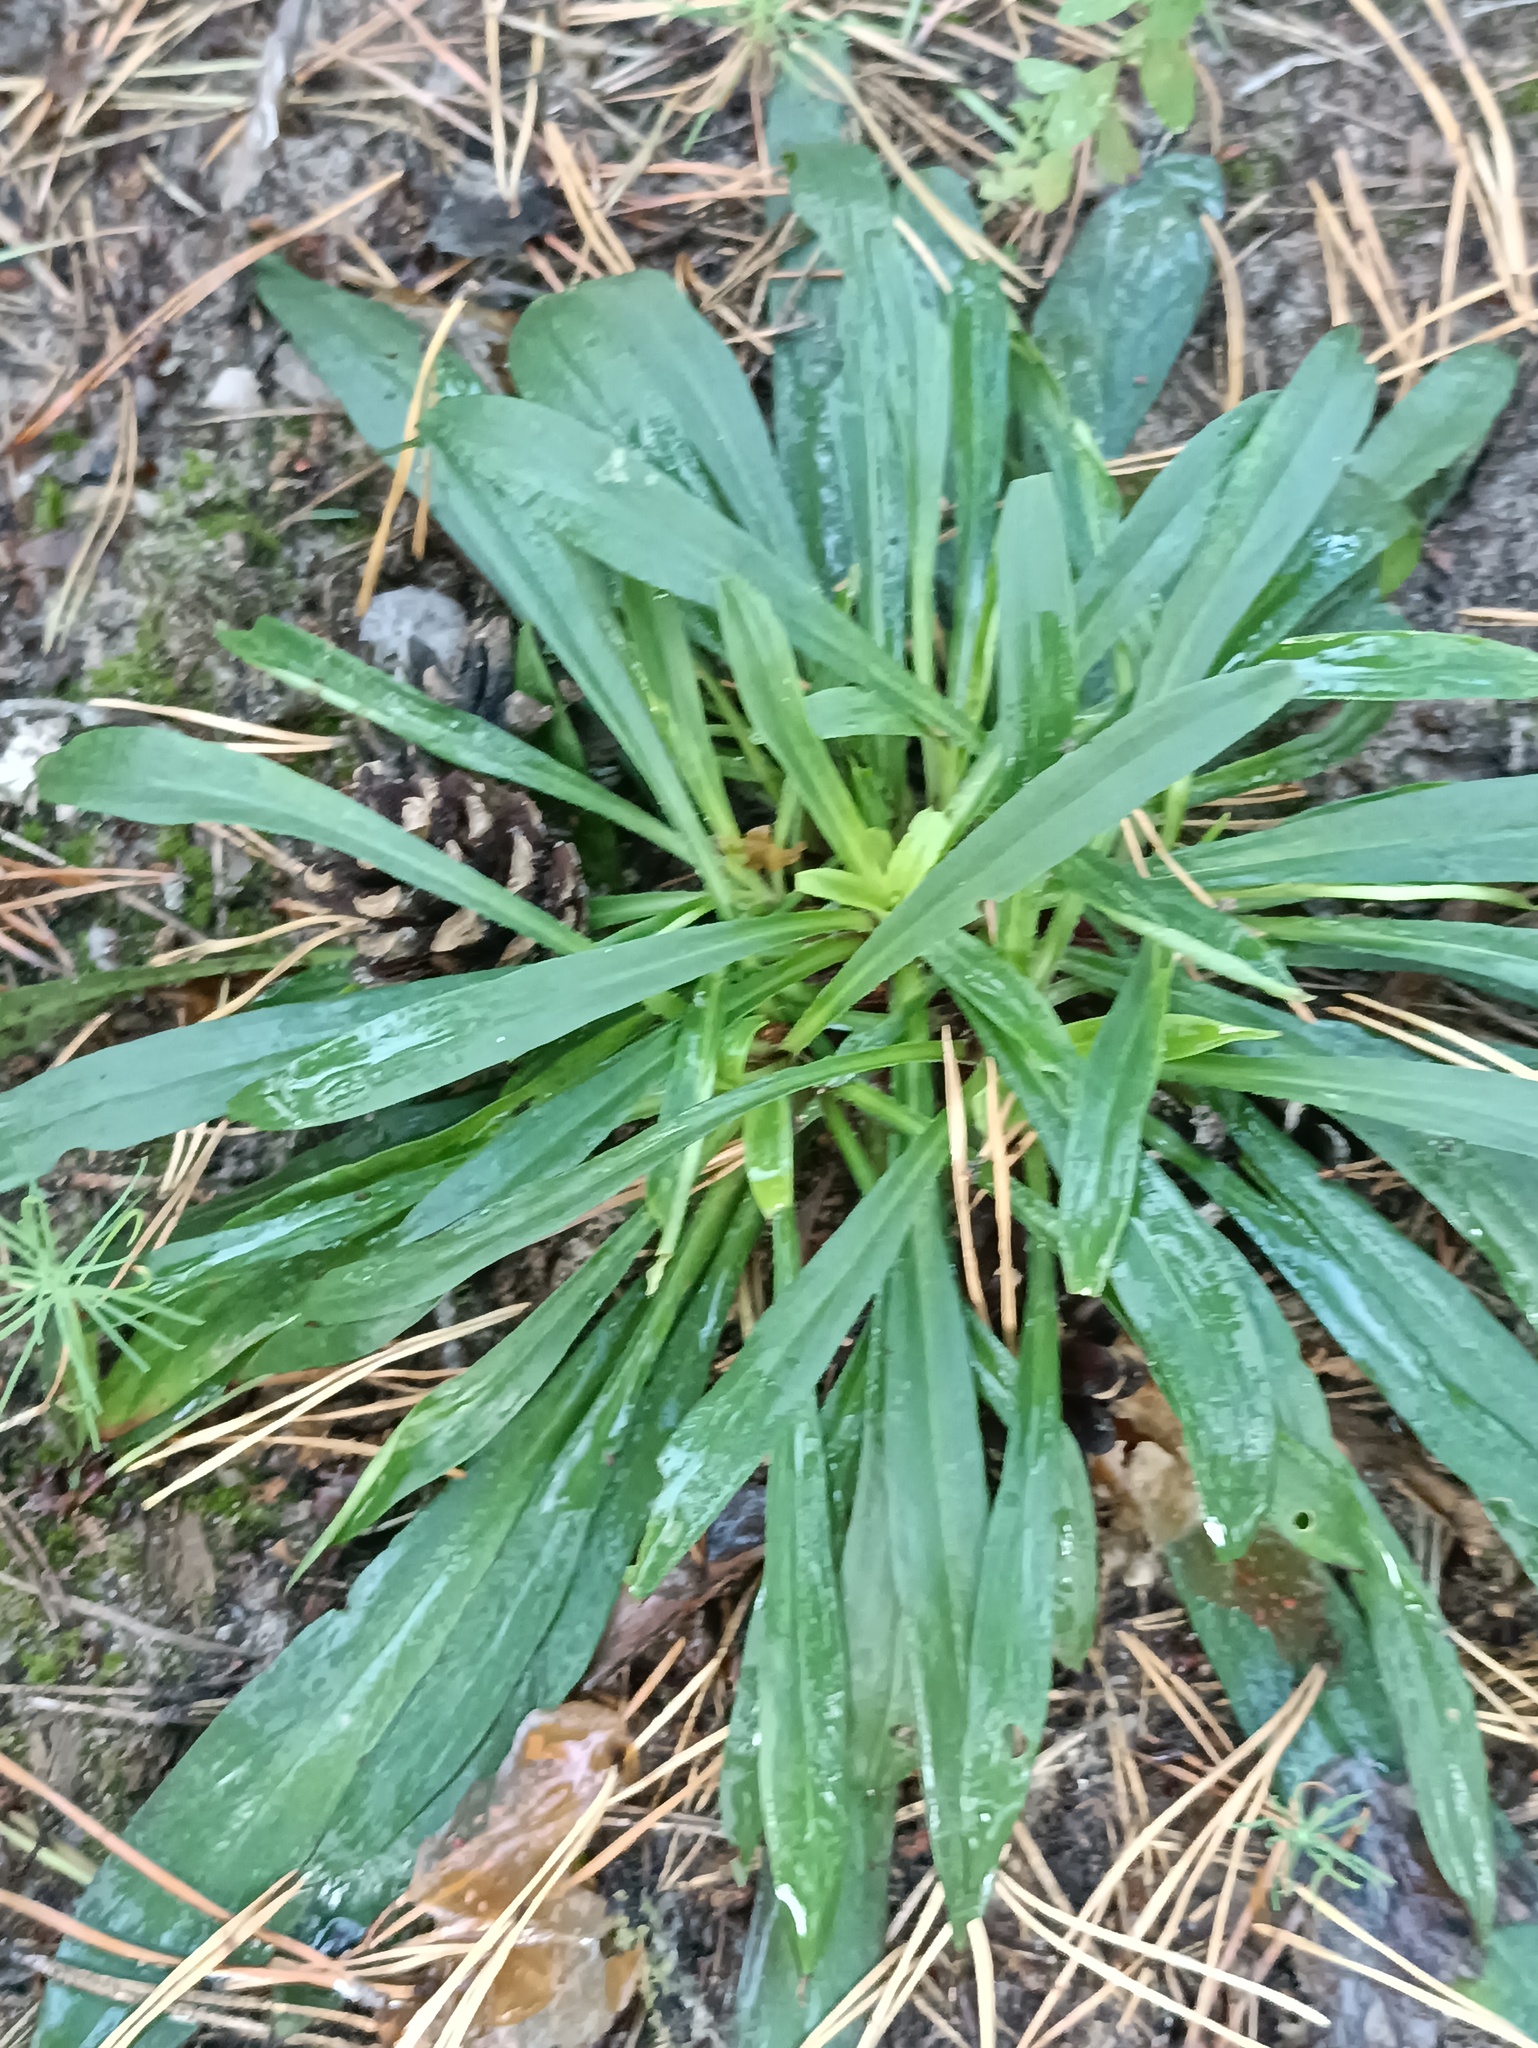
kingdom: Plantae
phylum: Tracheophyta
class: Magnoliopsida
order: Caryophyllales
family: Caryophyllaceae
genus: Viscaria
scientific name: Viscaria vulgaris
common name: Clammy campion
